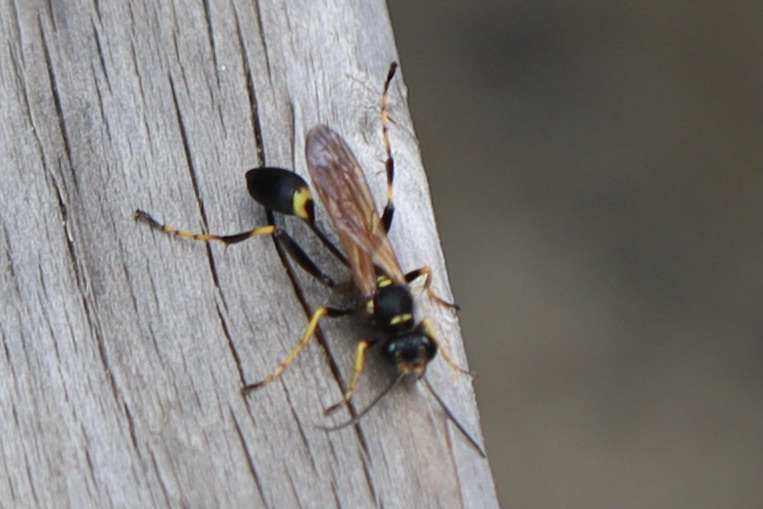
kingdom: Animalia
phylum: Arthropoda
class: Insecta
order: Hymenoptera
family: Sphecidae
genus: Sceliphron
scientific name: Sceliphron caementarium
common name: Mud dauber
